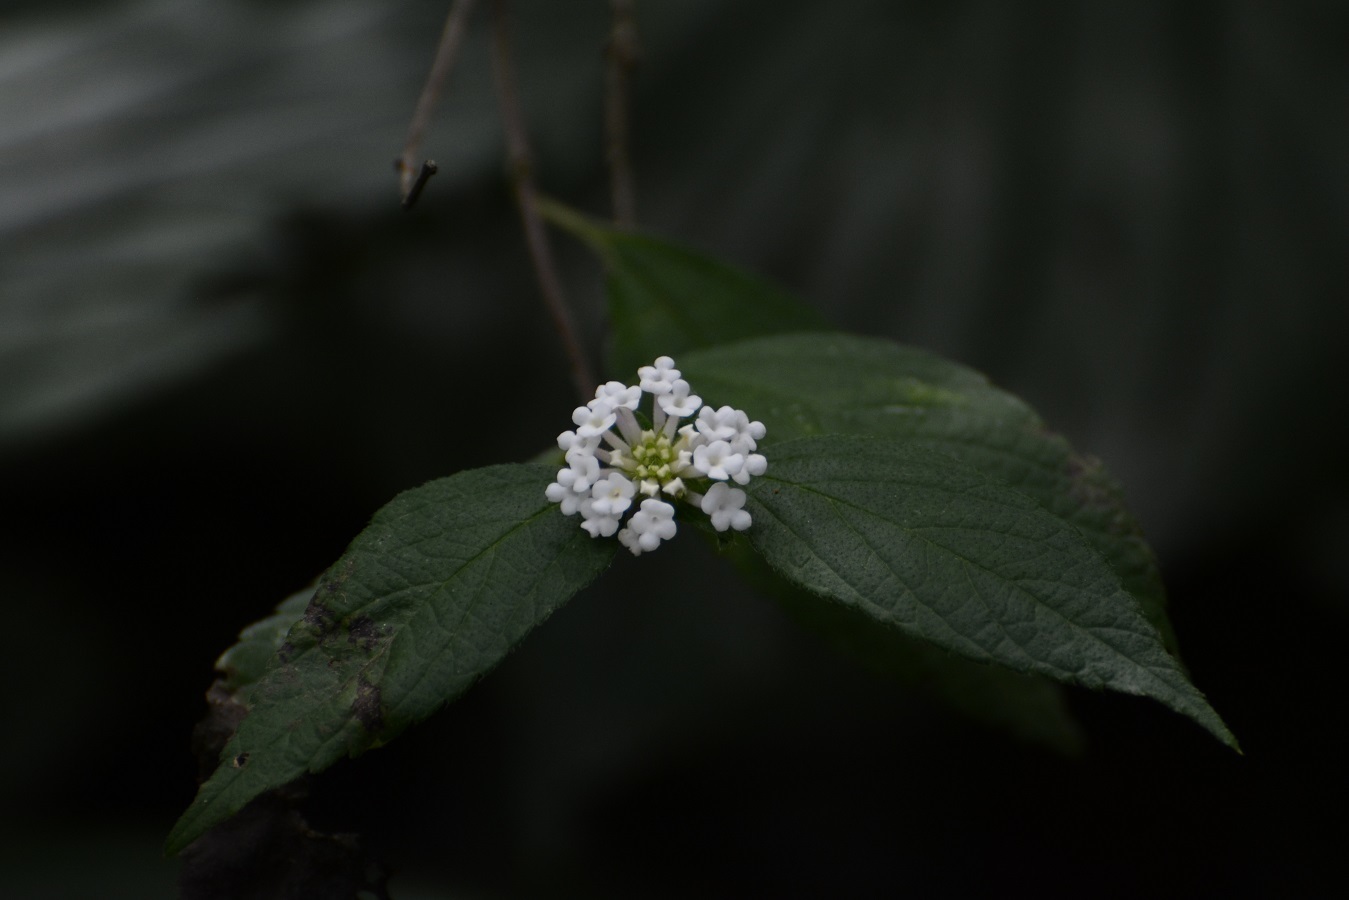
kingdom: Plantae
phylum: Tracheophyta
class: Magnoliopsida
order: Lamiales
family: Verbenaceae
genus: Lantana
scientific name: Lantana velutina
